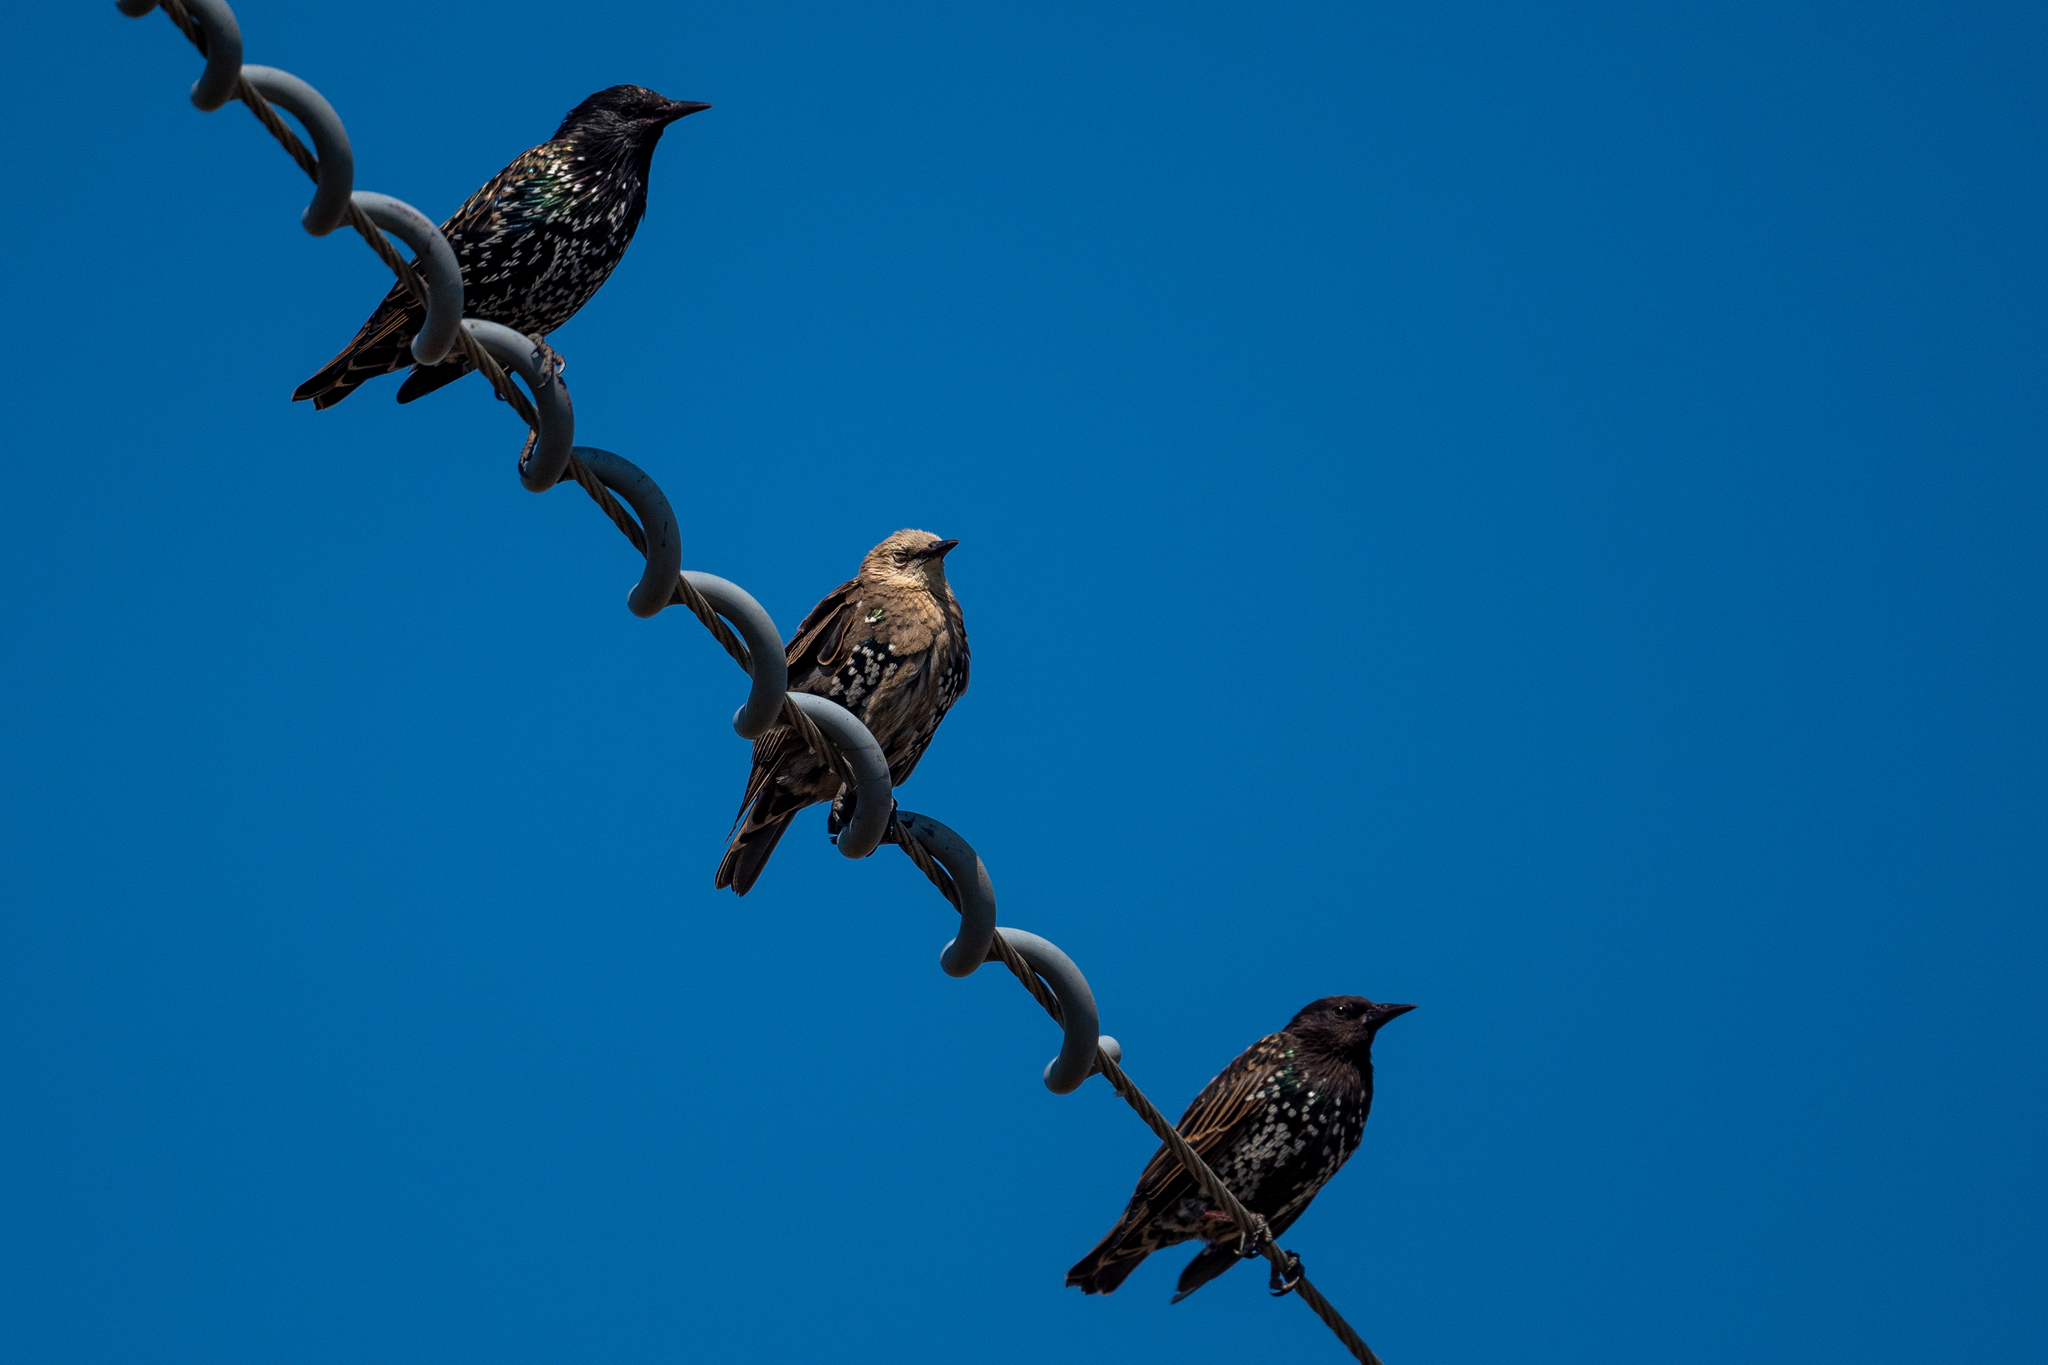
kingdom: Animalia
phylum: Chordata
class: Aves
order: Passeriformes
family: Sturnidae
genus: Sturnus
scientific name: Sturnus vulgaris
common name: Common starling
